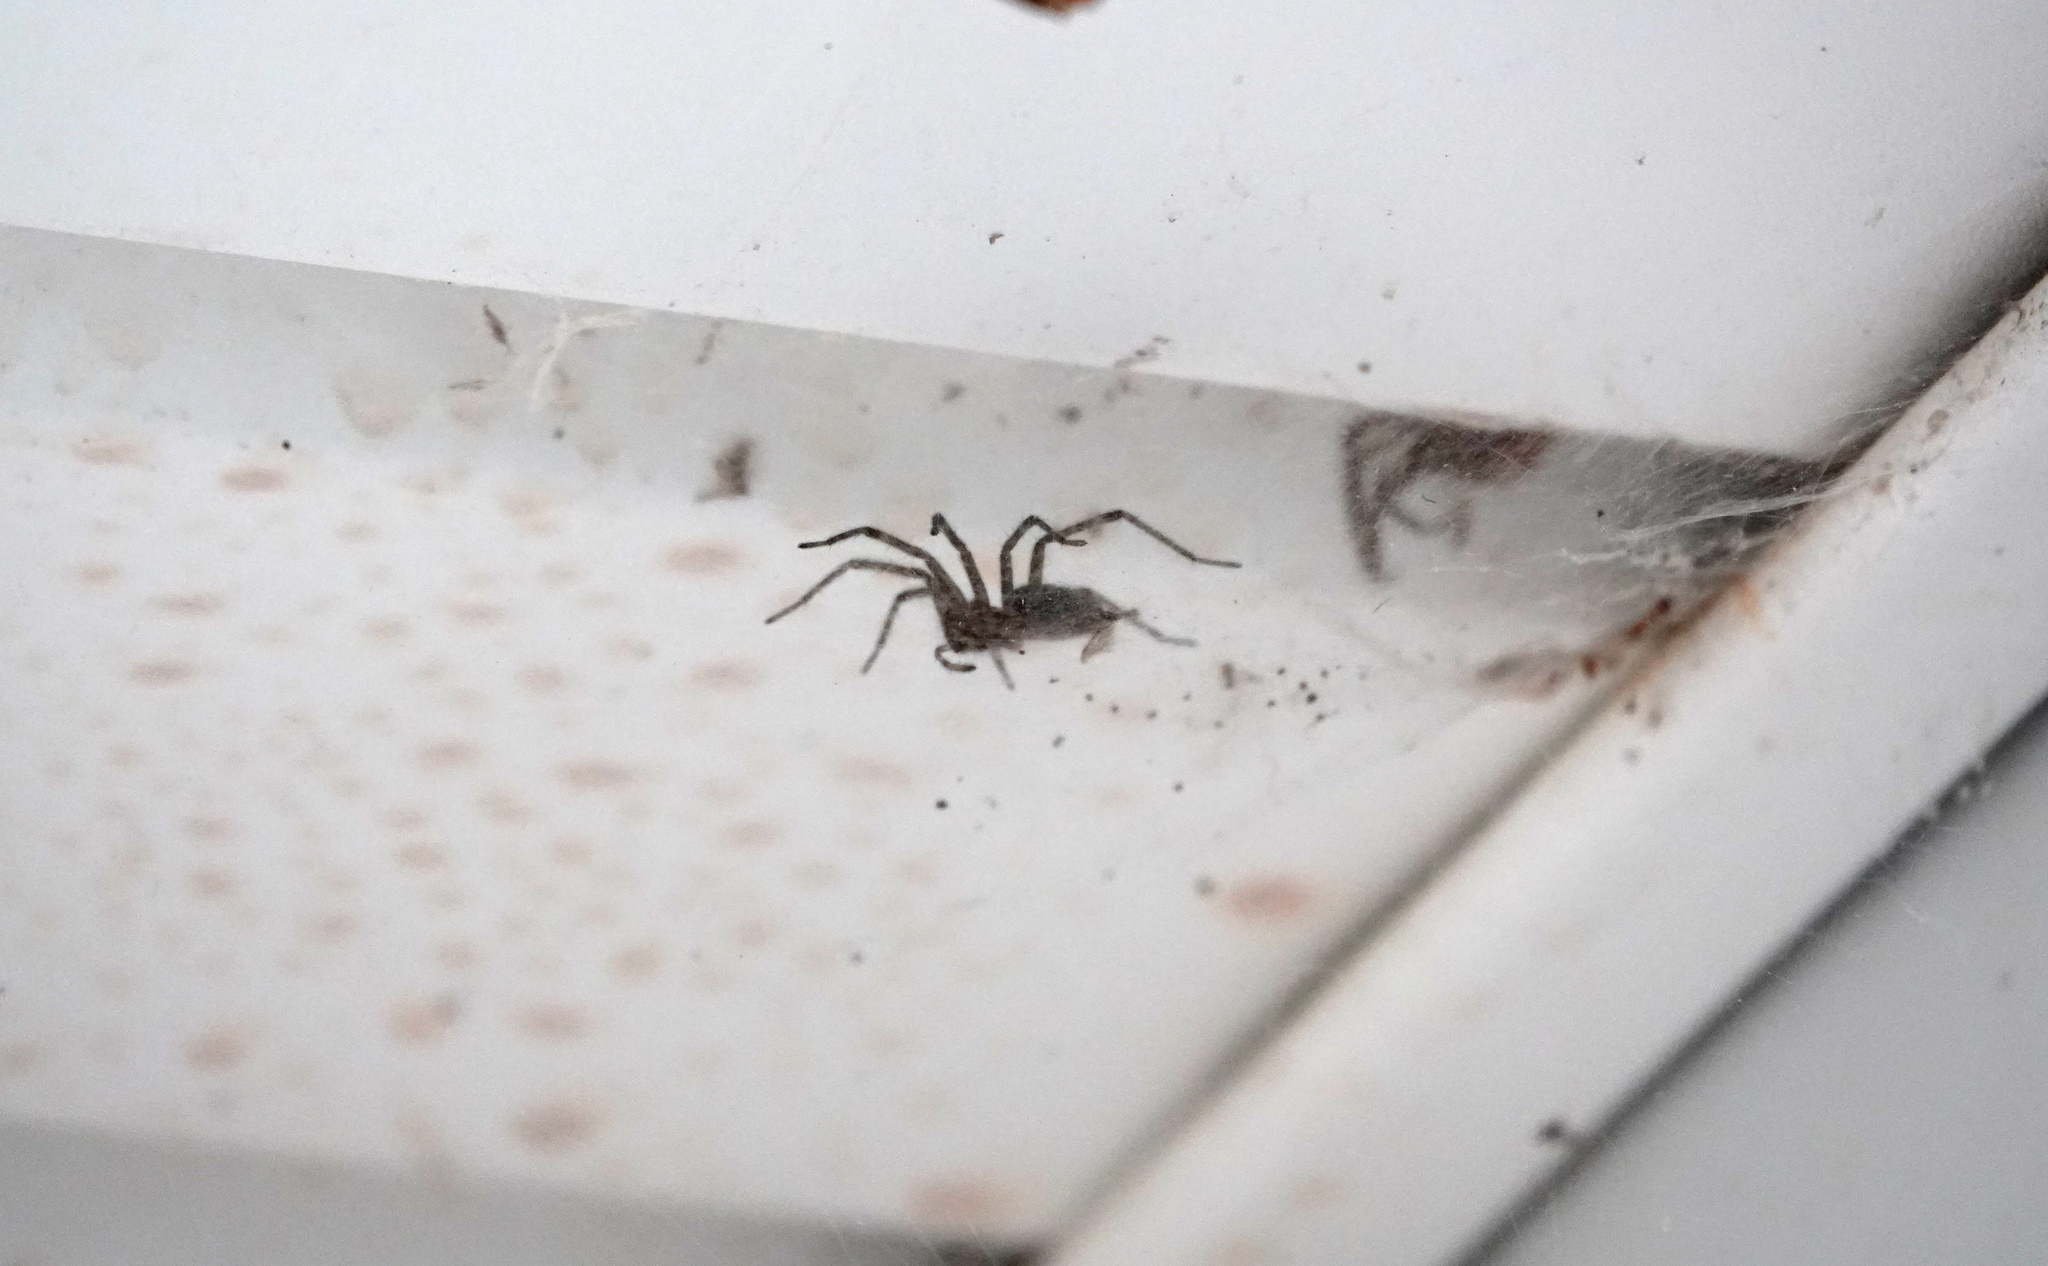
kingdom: Animalia
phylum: Arthropoda
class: Arachnida
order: Araneae
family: Agelenidae
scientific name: Agelenidae
